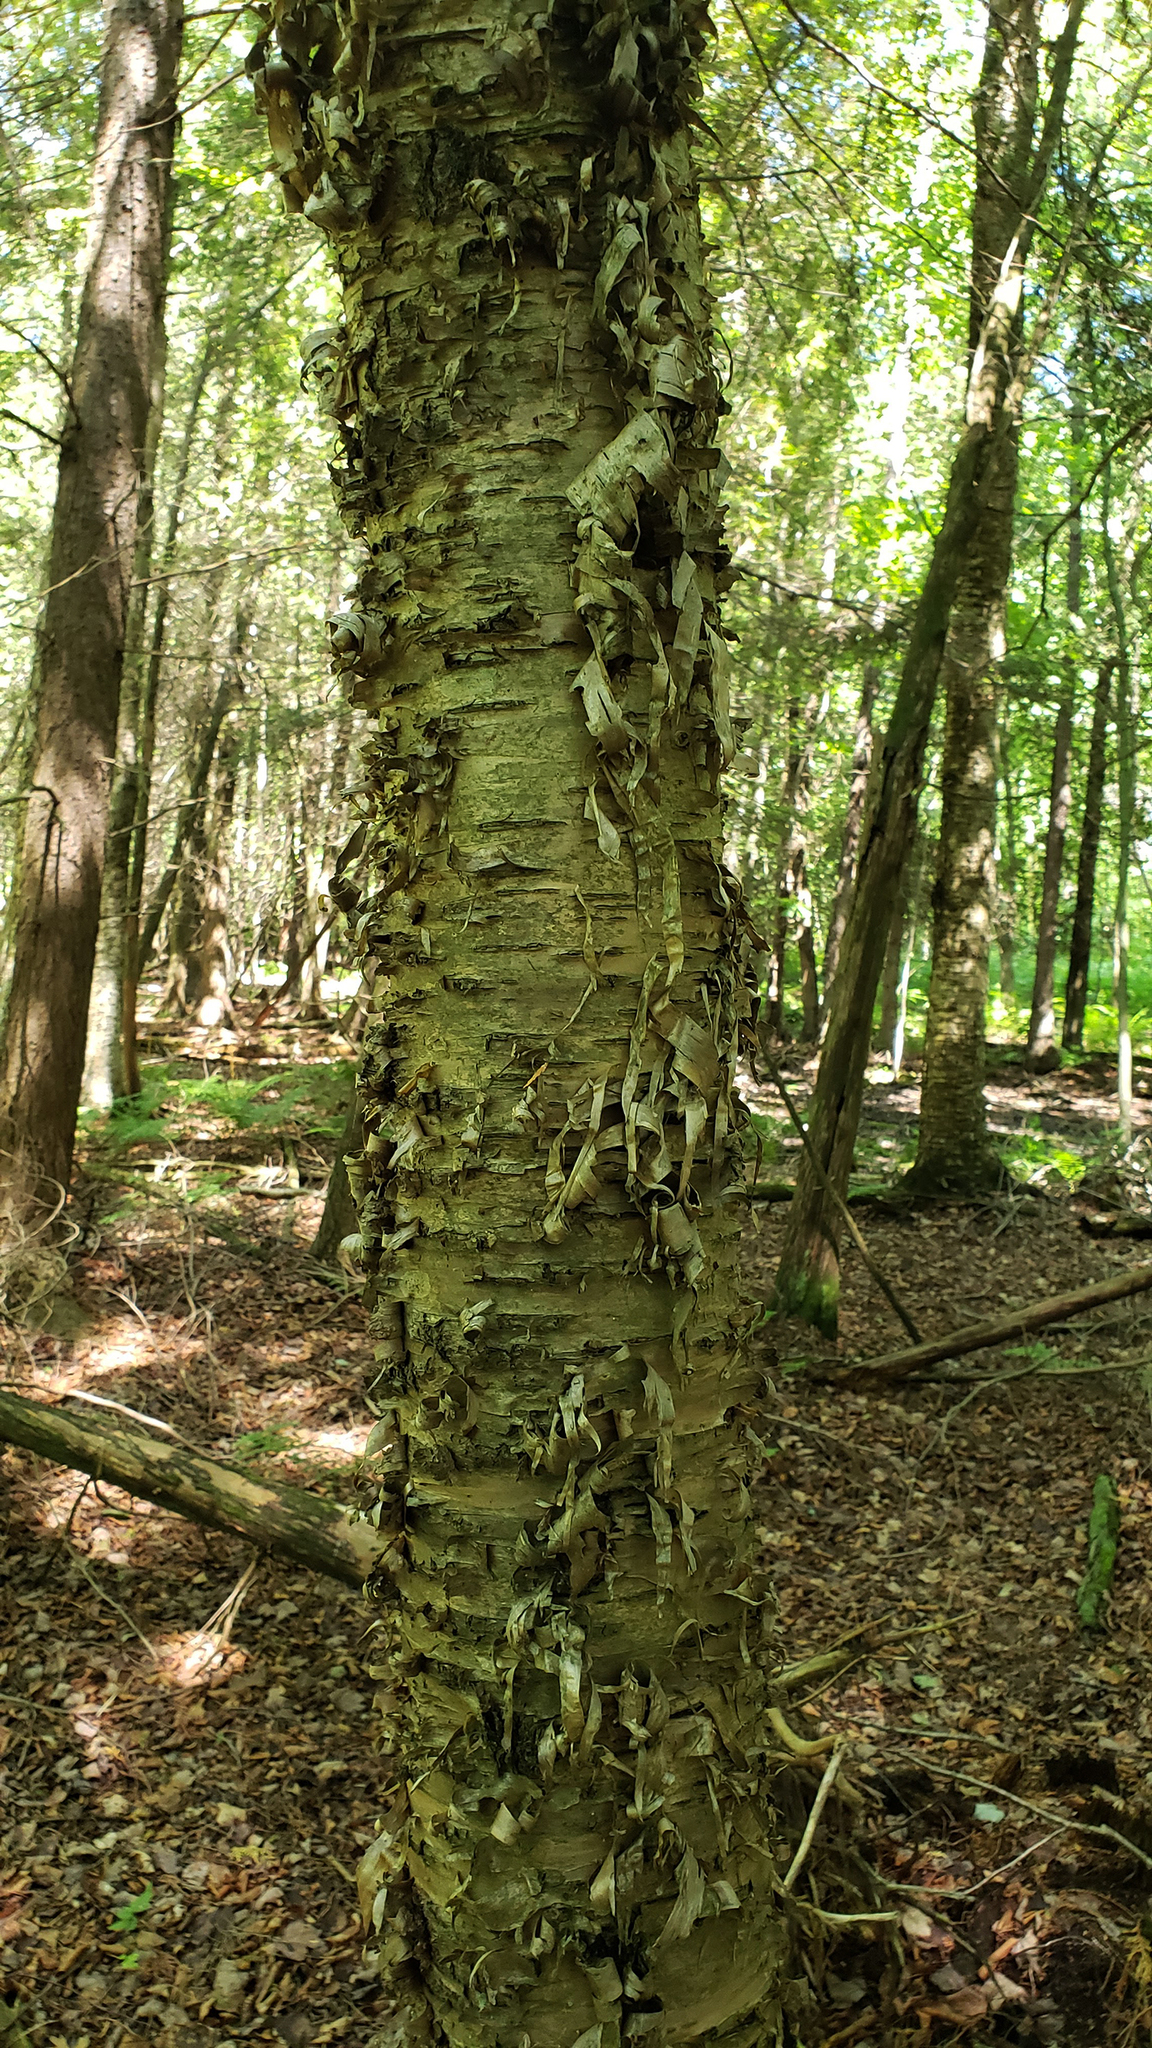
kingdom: Plantae
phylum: Tracheophyta
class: Magnoliopsida
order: Fagales
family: Betulaceae
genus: Betula
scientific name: Betula alleghaniensis
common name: Yellow birch
